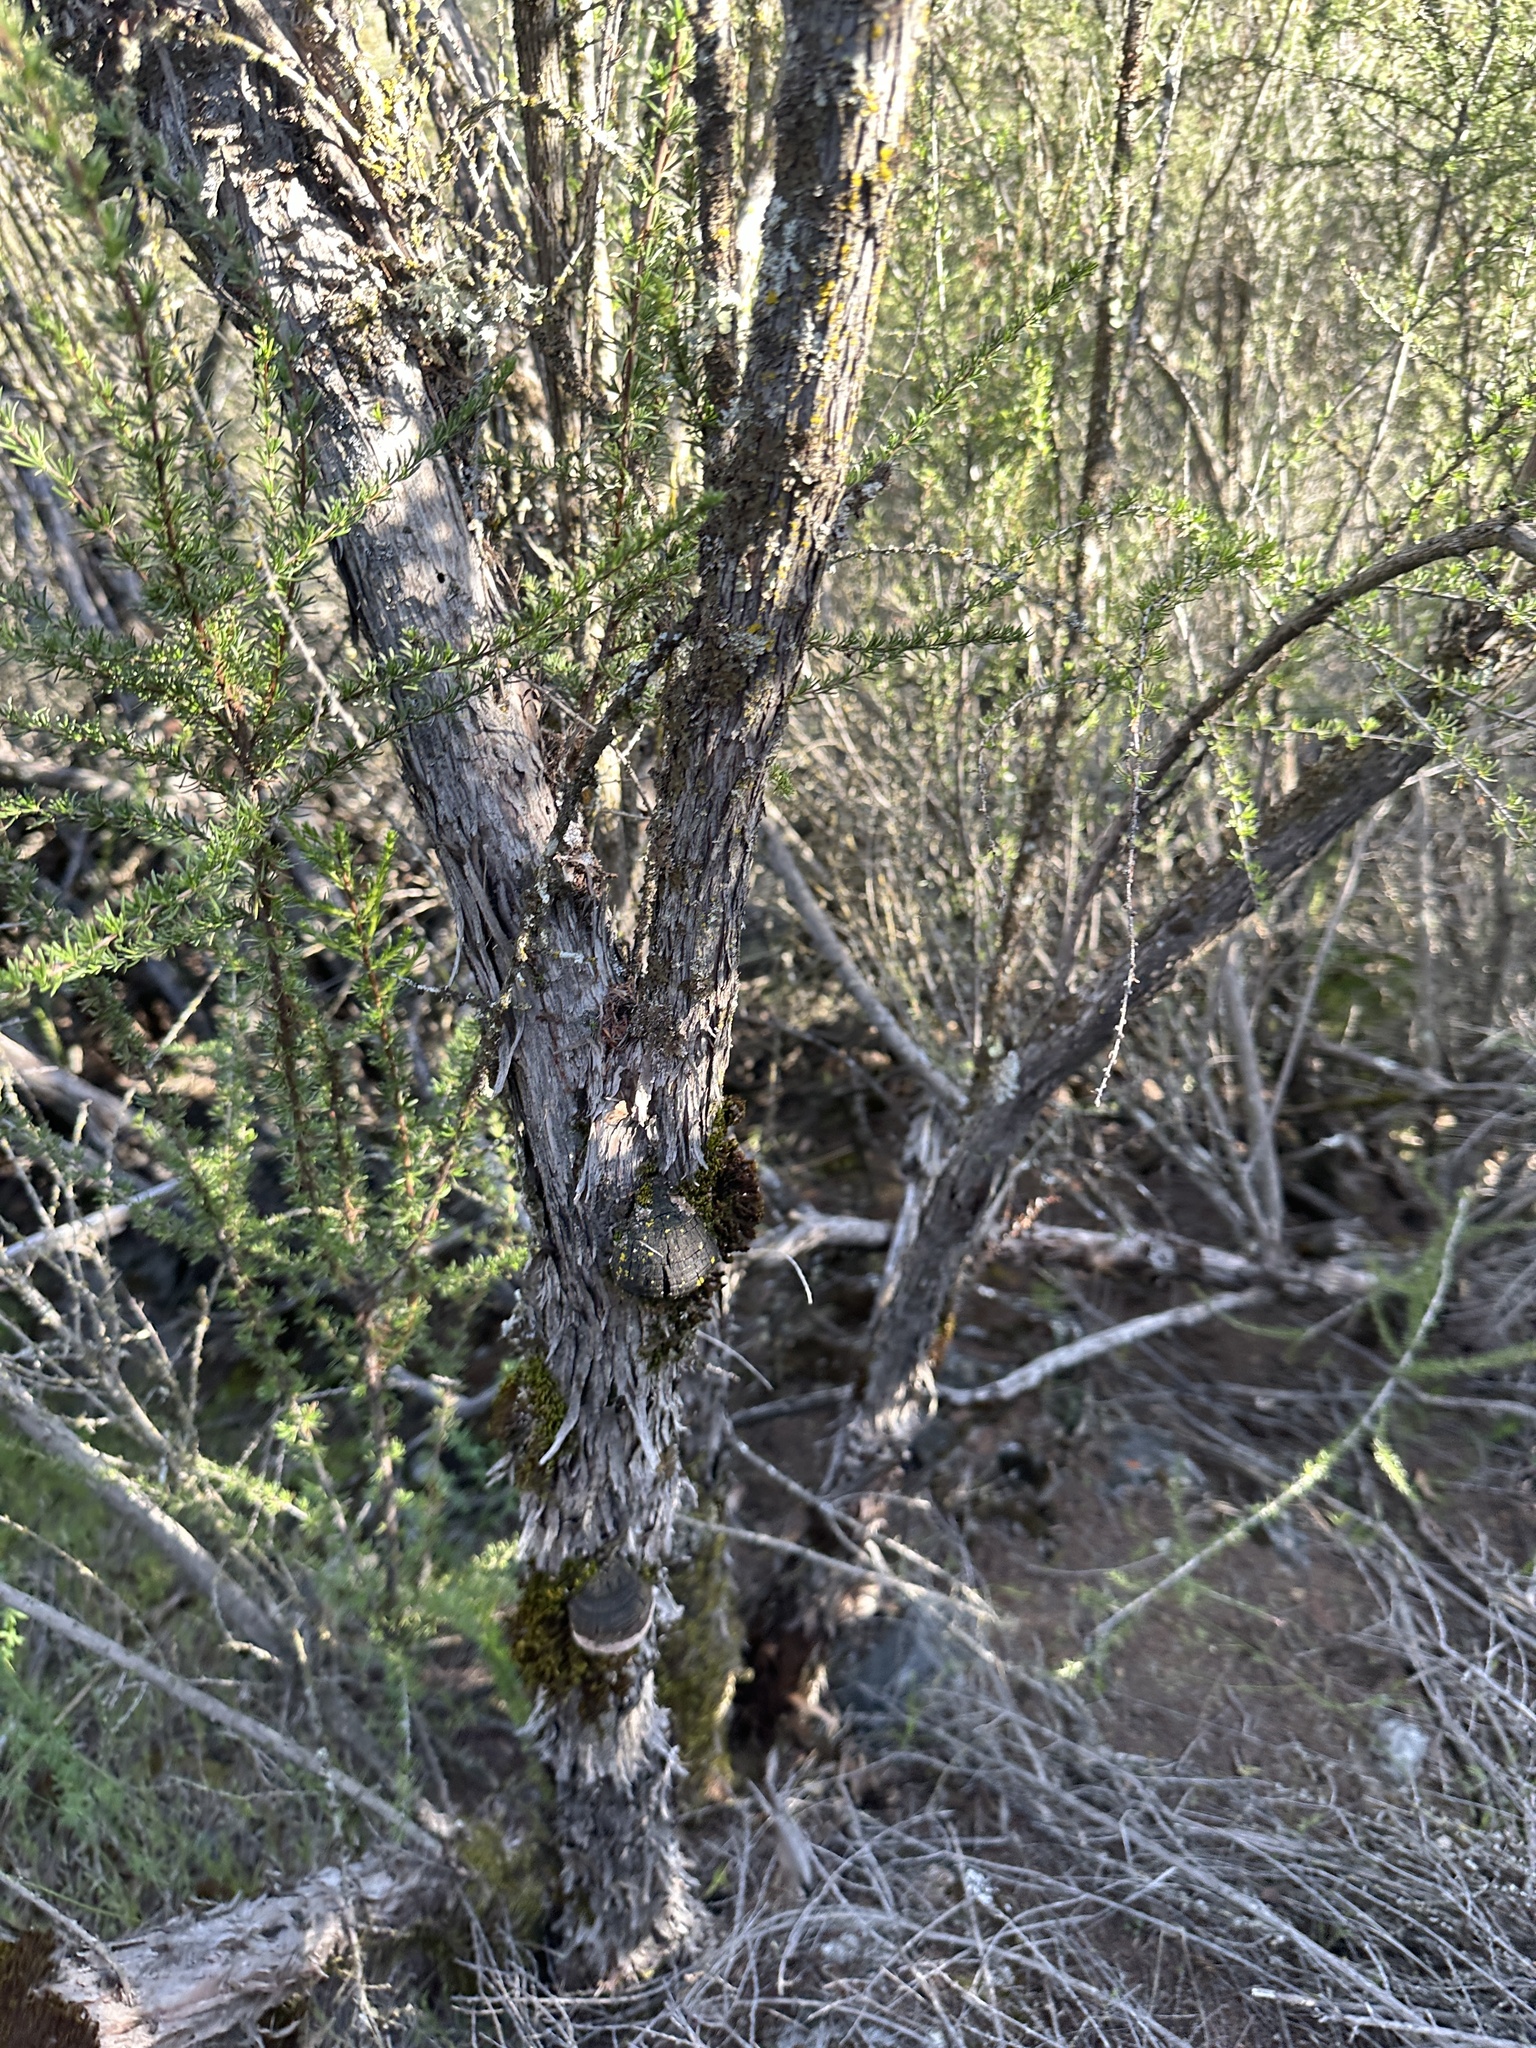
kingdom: Fungi
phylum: Basidiomycota
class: Agaricomycetes
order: Polyporales
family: Polyporaceae
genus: Fomes
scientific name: Fomes arctostaphyli
